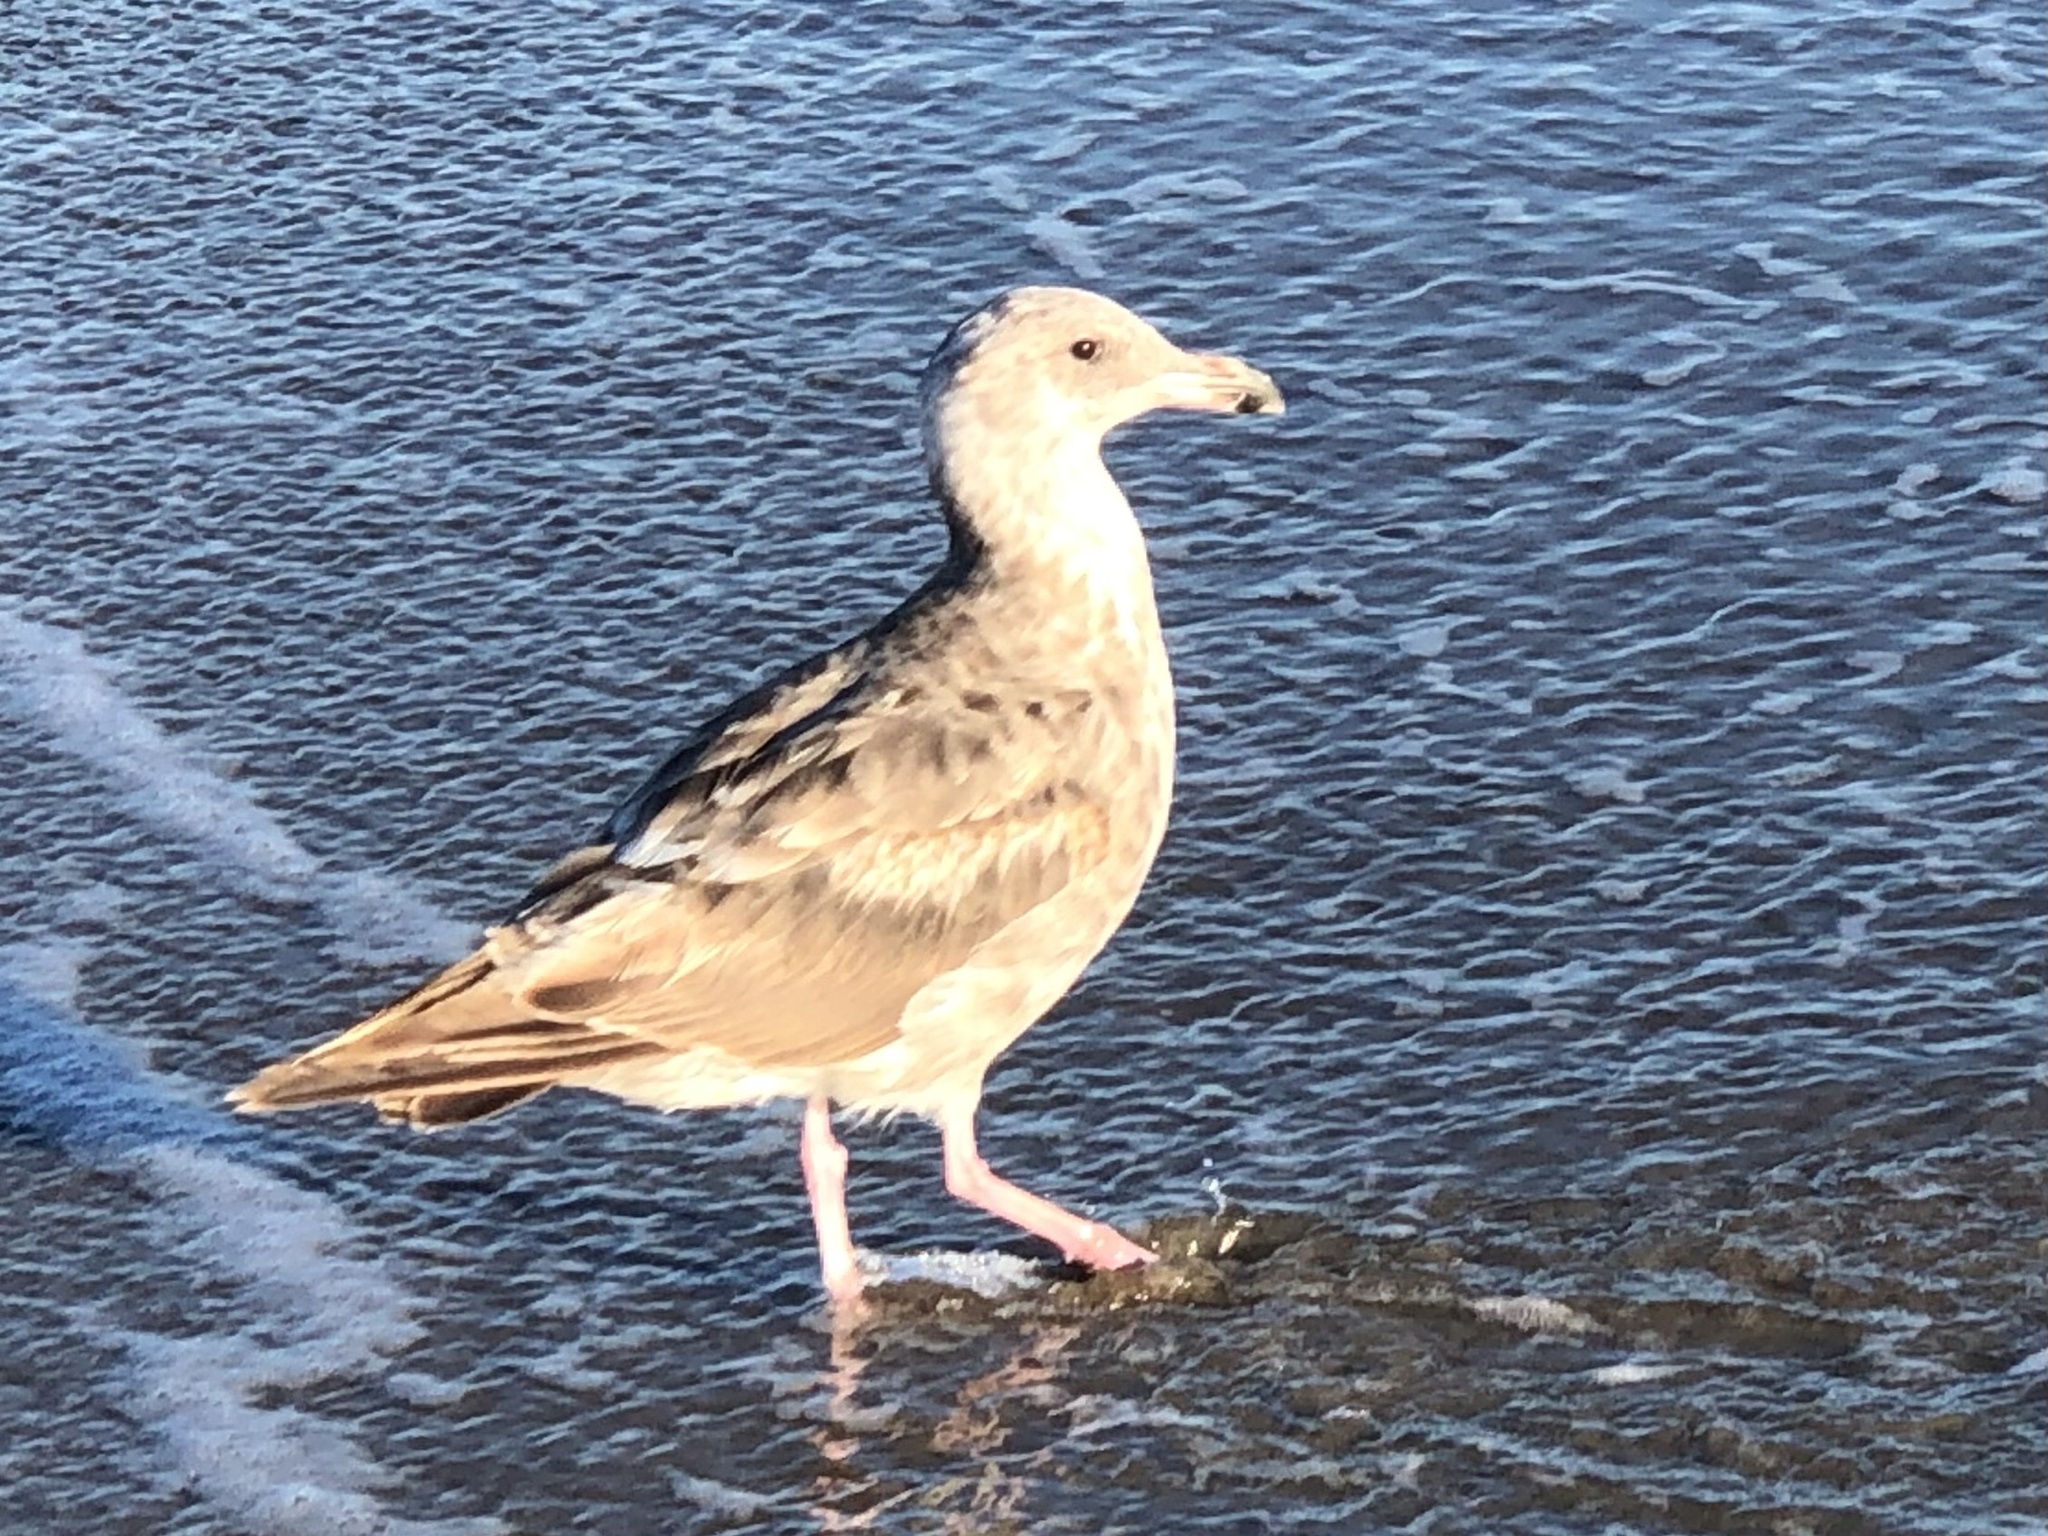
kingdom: Animalia
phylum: Chordata
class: Aves
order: Charadriiformes
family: Laridae
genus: Larus
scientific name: Larus occidentalis
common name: Western gull
